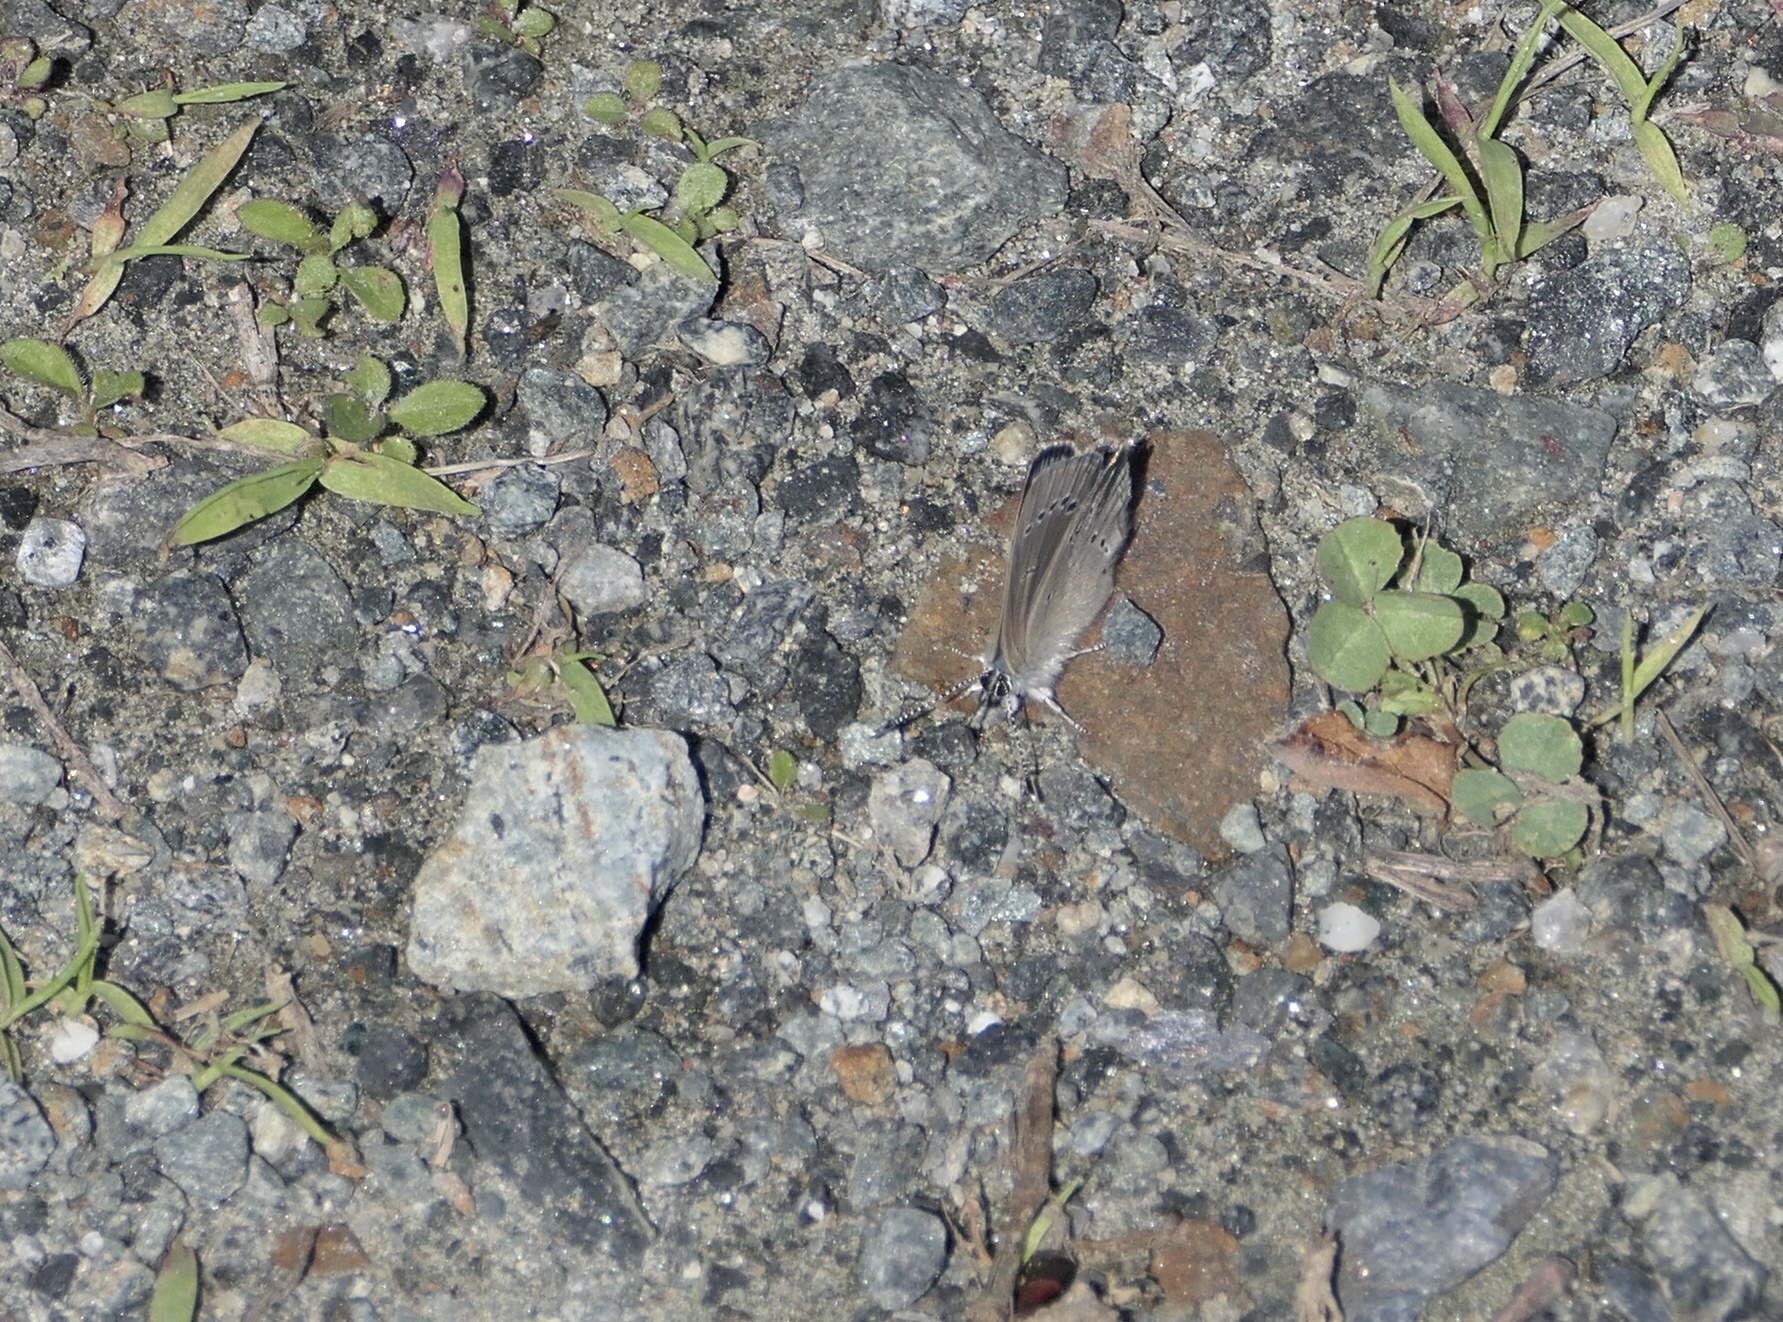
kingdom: Animalia
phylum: Arthropoda
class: Insecta
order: Lepidoptera
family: Lycaenidae
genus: Glaucopsyche
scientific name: Glaucopsyche lygdamus
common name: Silvery blue
